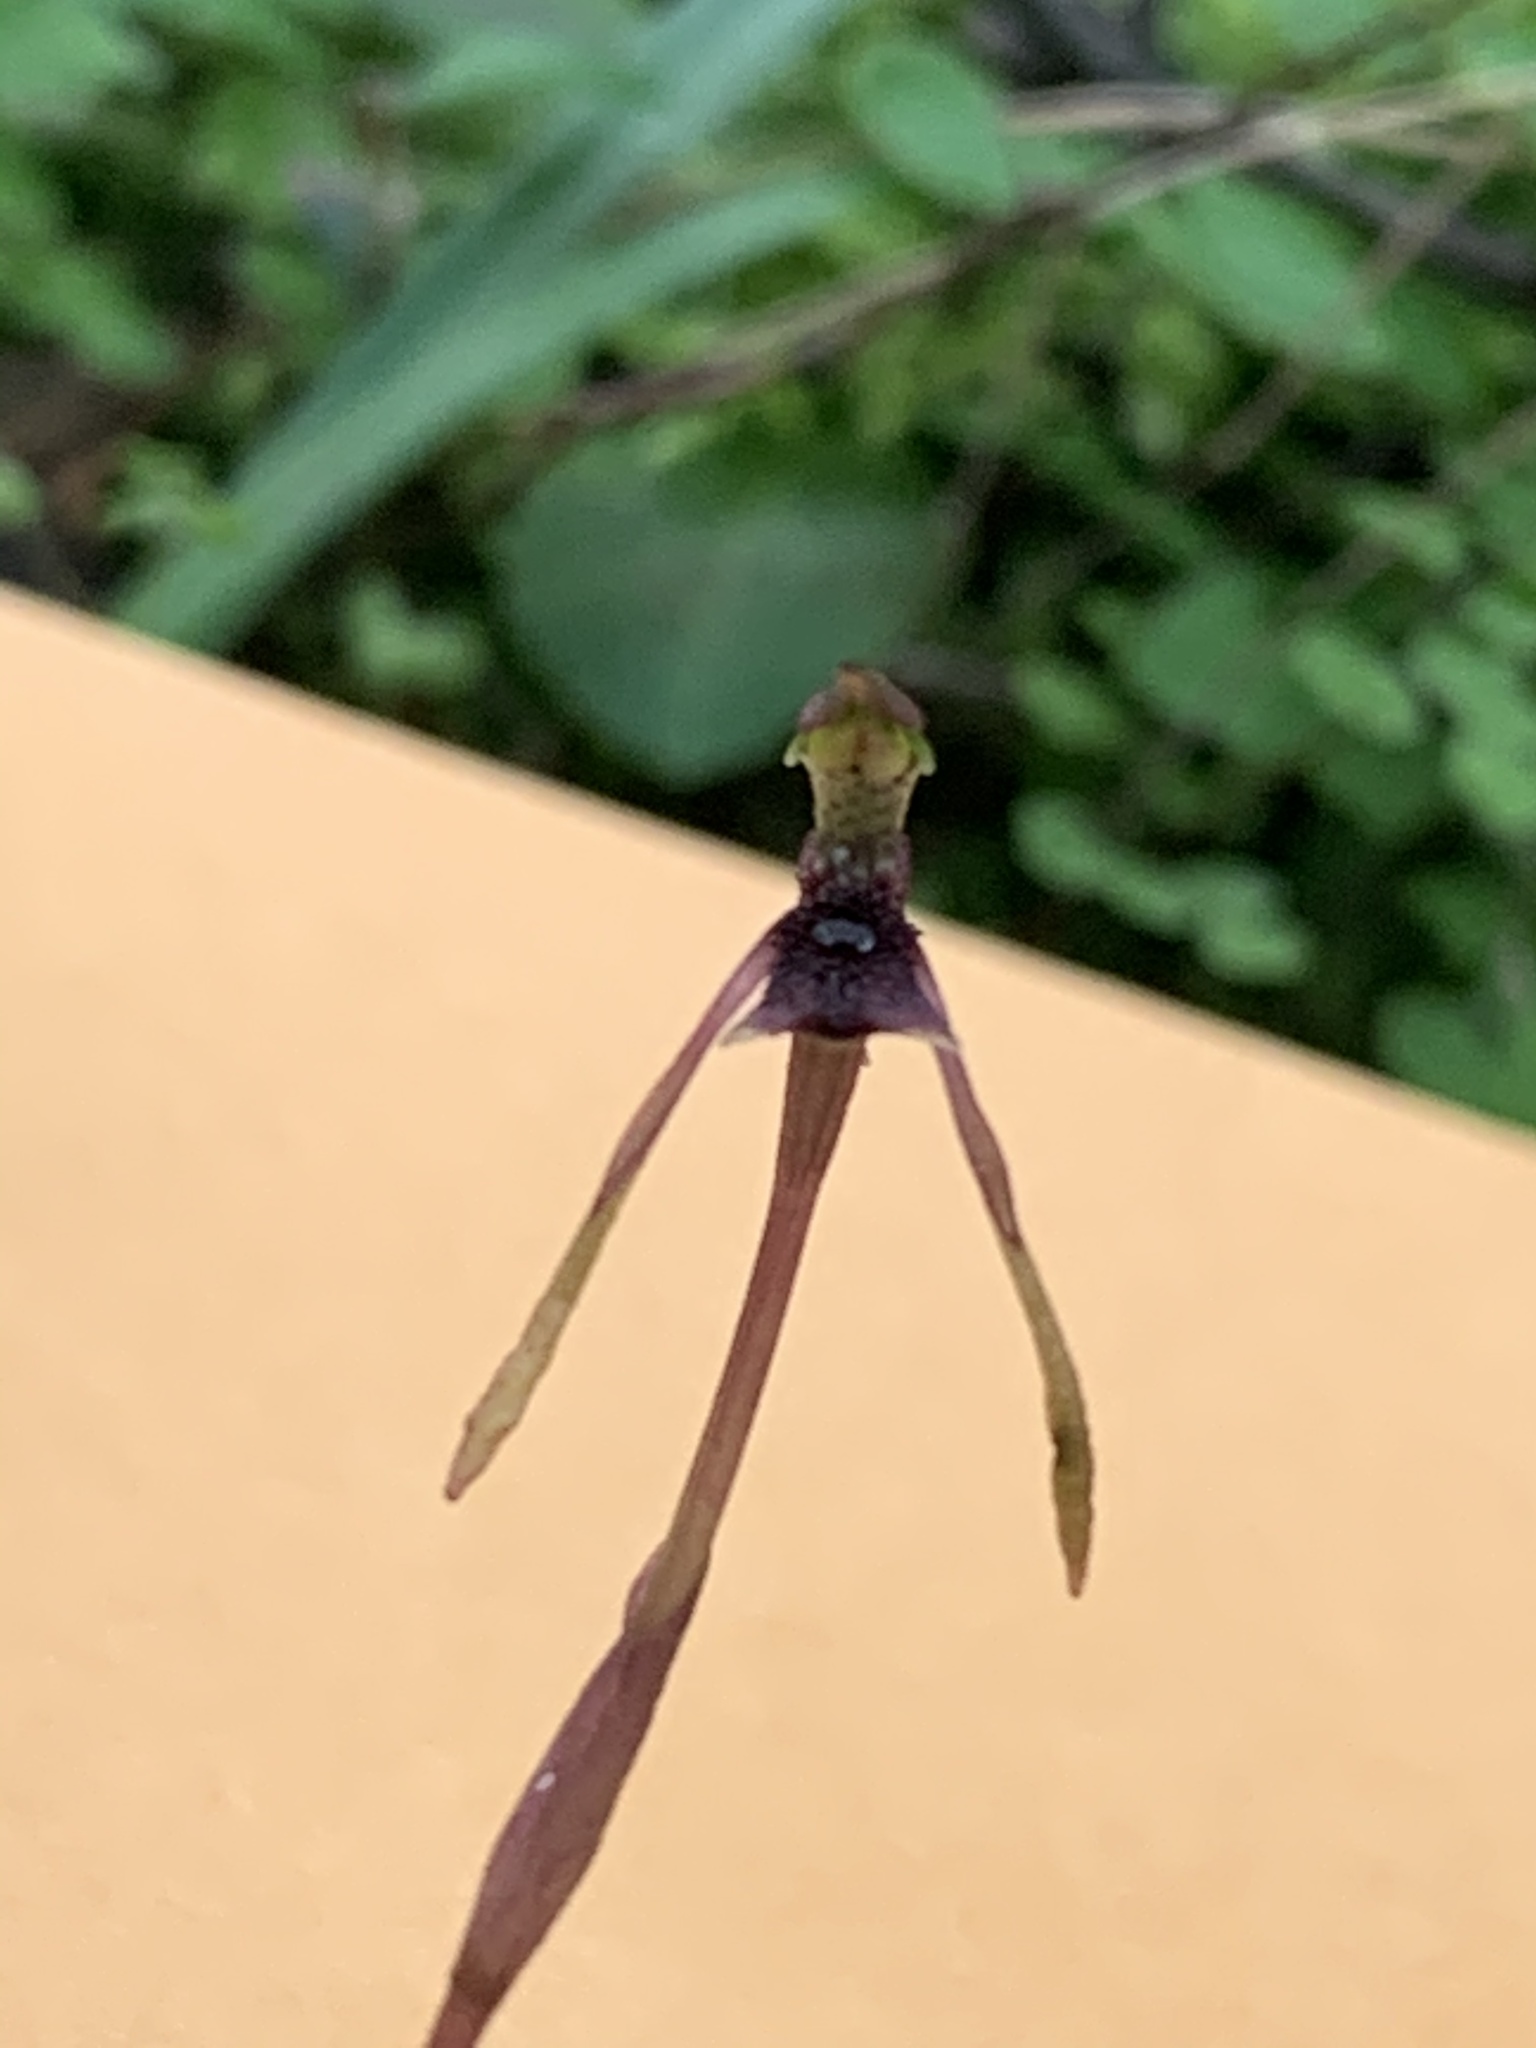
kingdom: Plantae
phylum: Tracheophyta
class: Liliopsida
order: Asparagales
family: Orchidaceae
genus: Chiloglottis
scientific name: Chiloglottis diphylla
